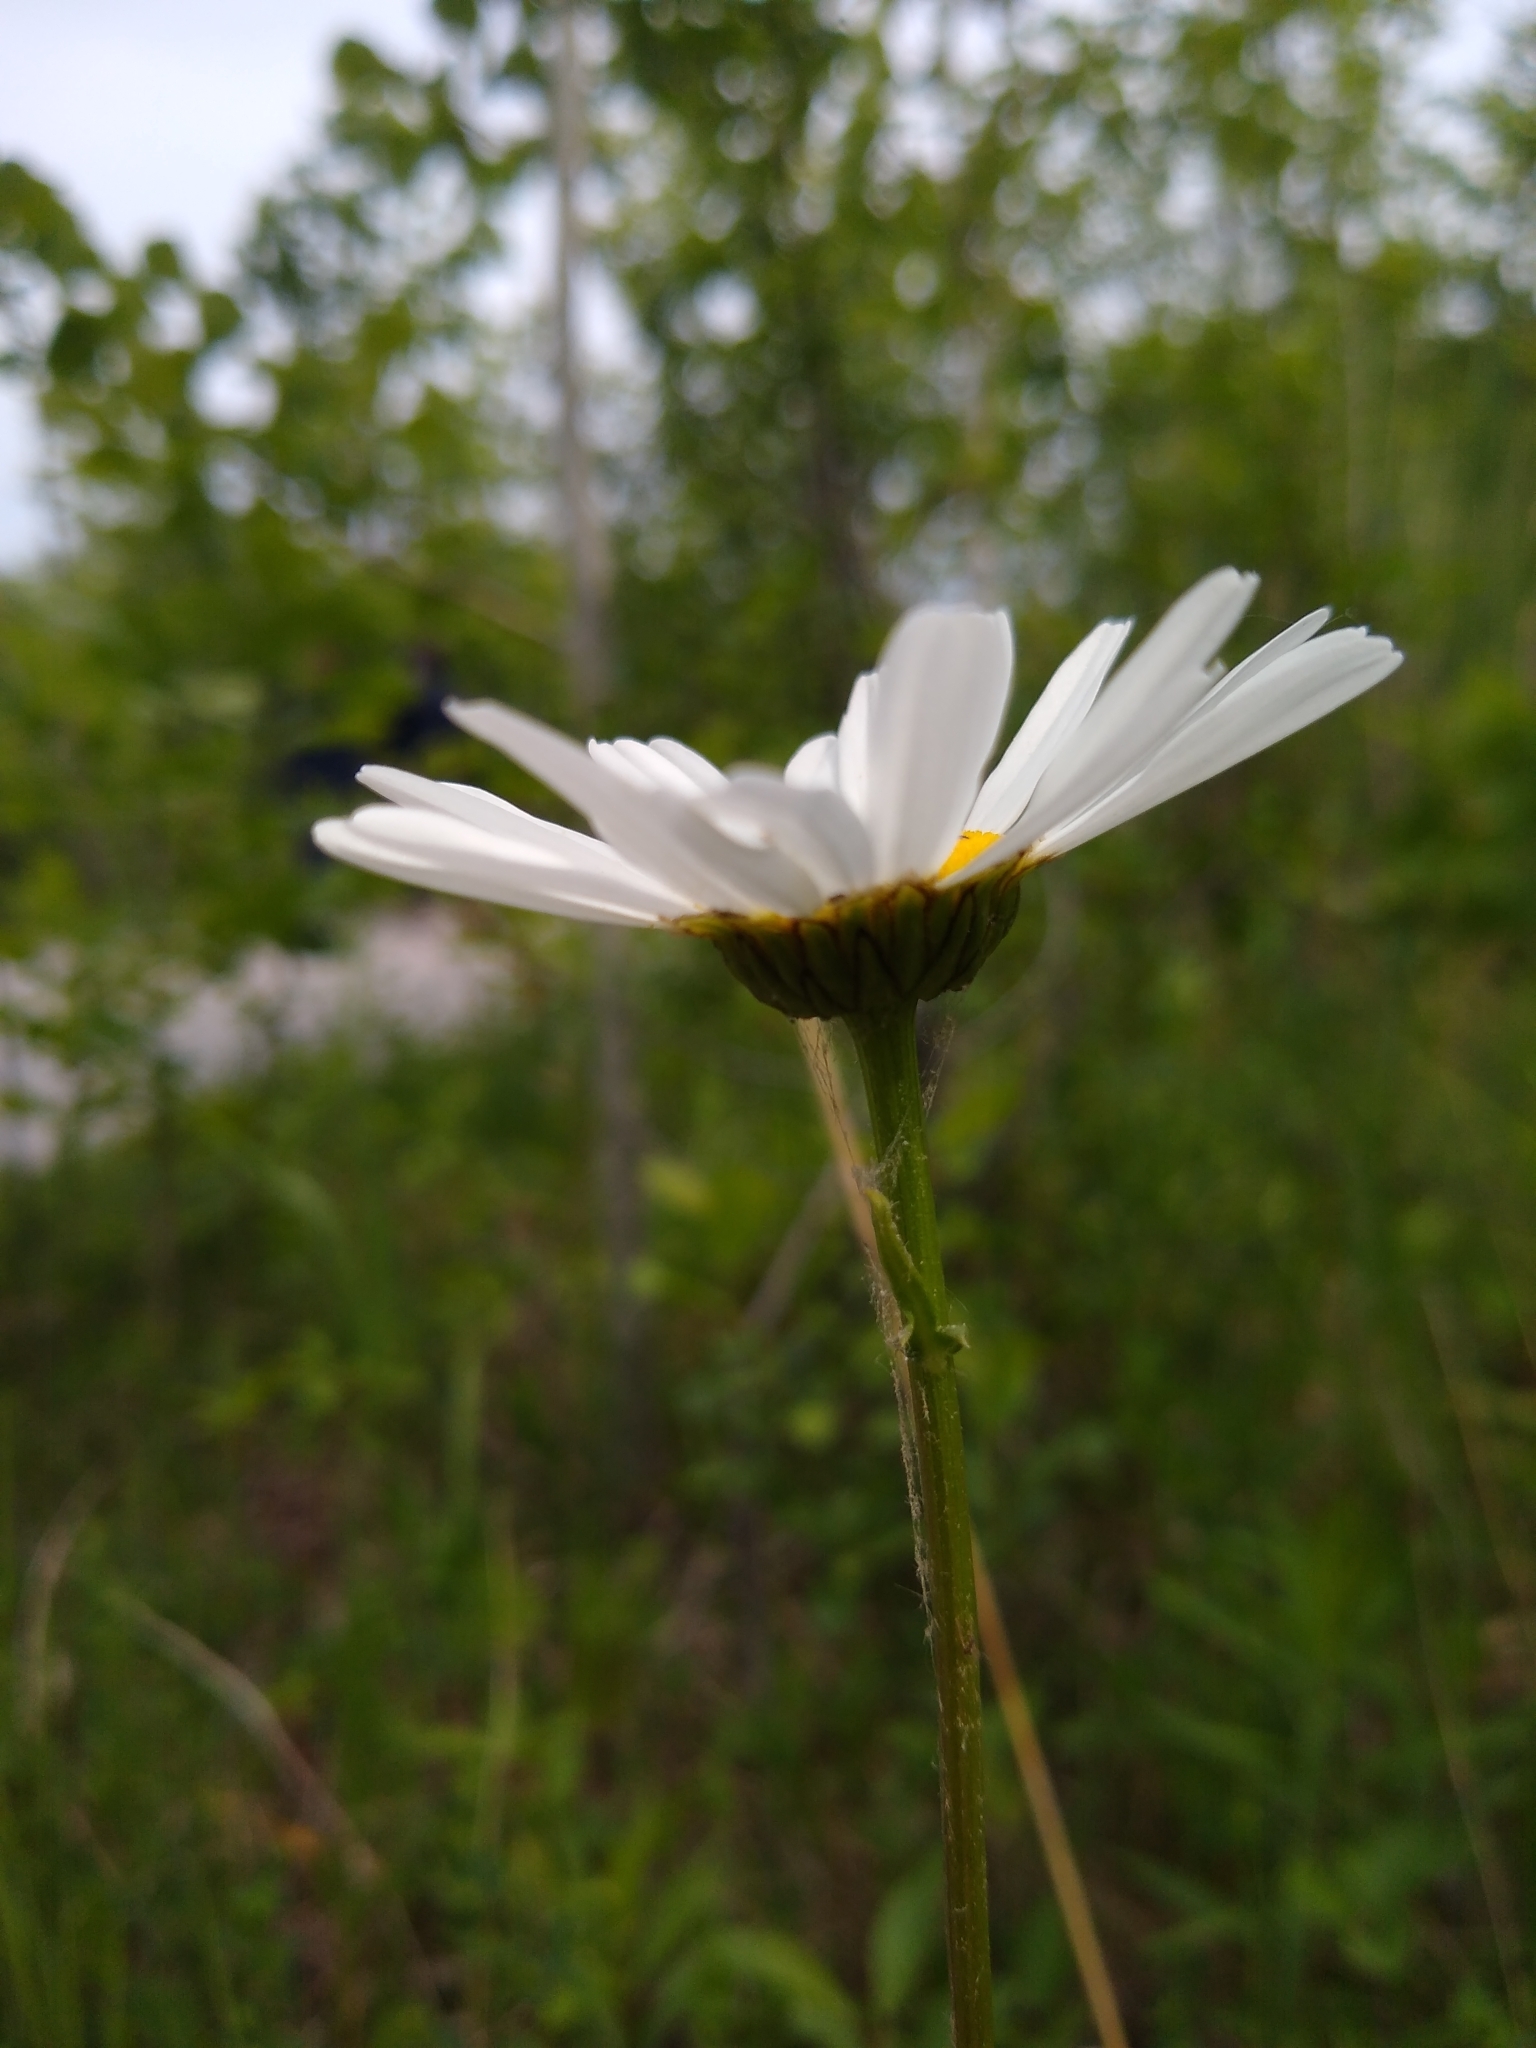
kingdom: Plantae
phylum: Tracheophyta
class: Magnoliopsida
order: Asterales
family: Asteraceae
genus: Leucanthemum
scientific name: Leucanthemum vulgare
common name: Oxeye daisy
